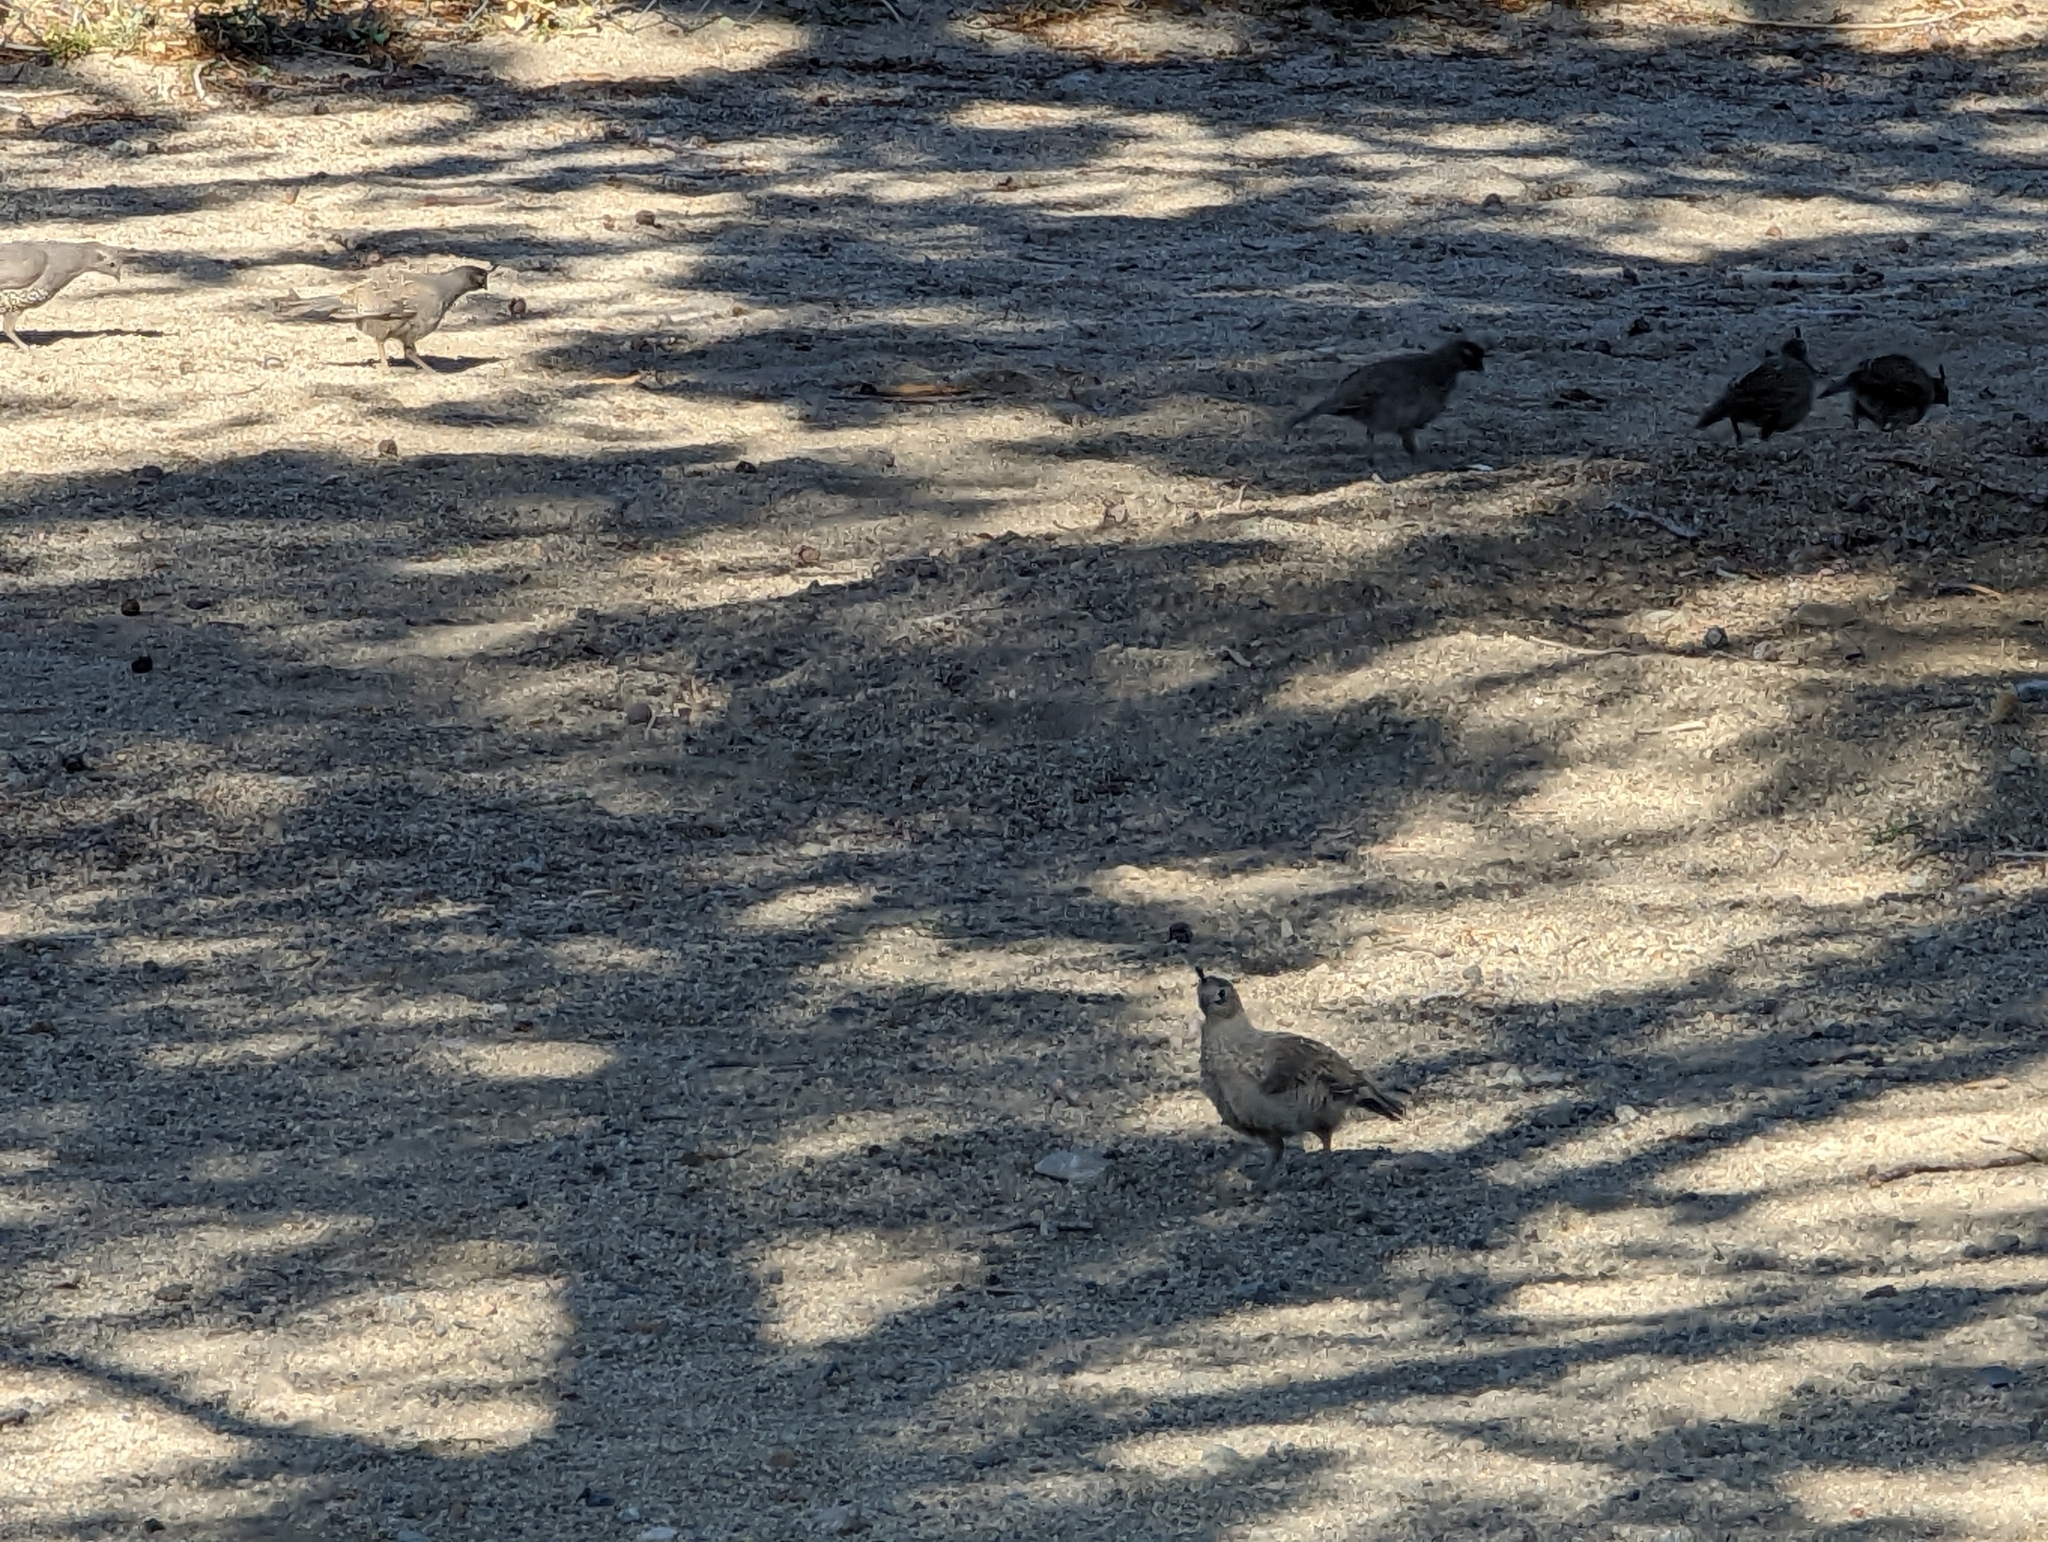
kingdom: Animalia
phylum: Chordata
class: Aves
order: Galliformes
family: Odontophoridae
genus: Callipepla
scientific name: Callipepla californica
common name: California quail
